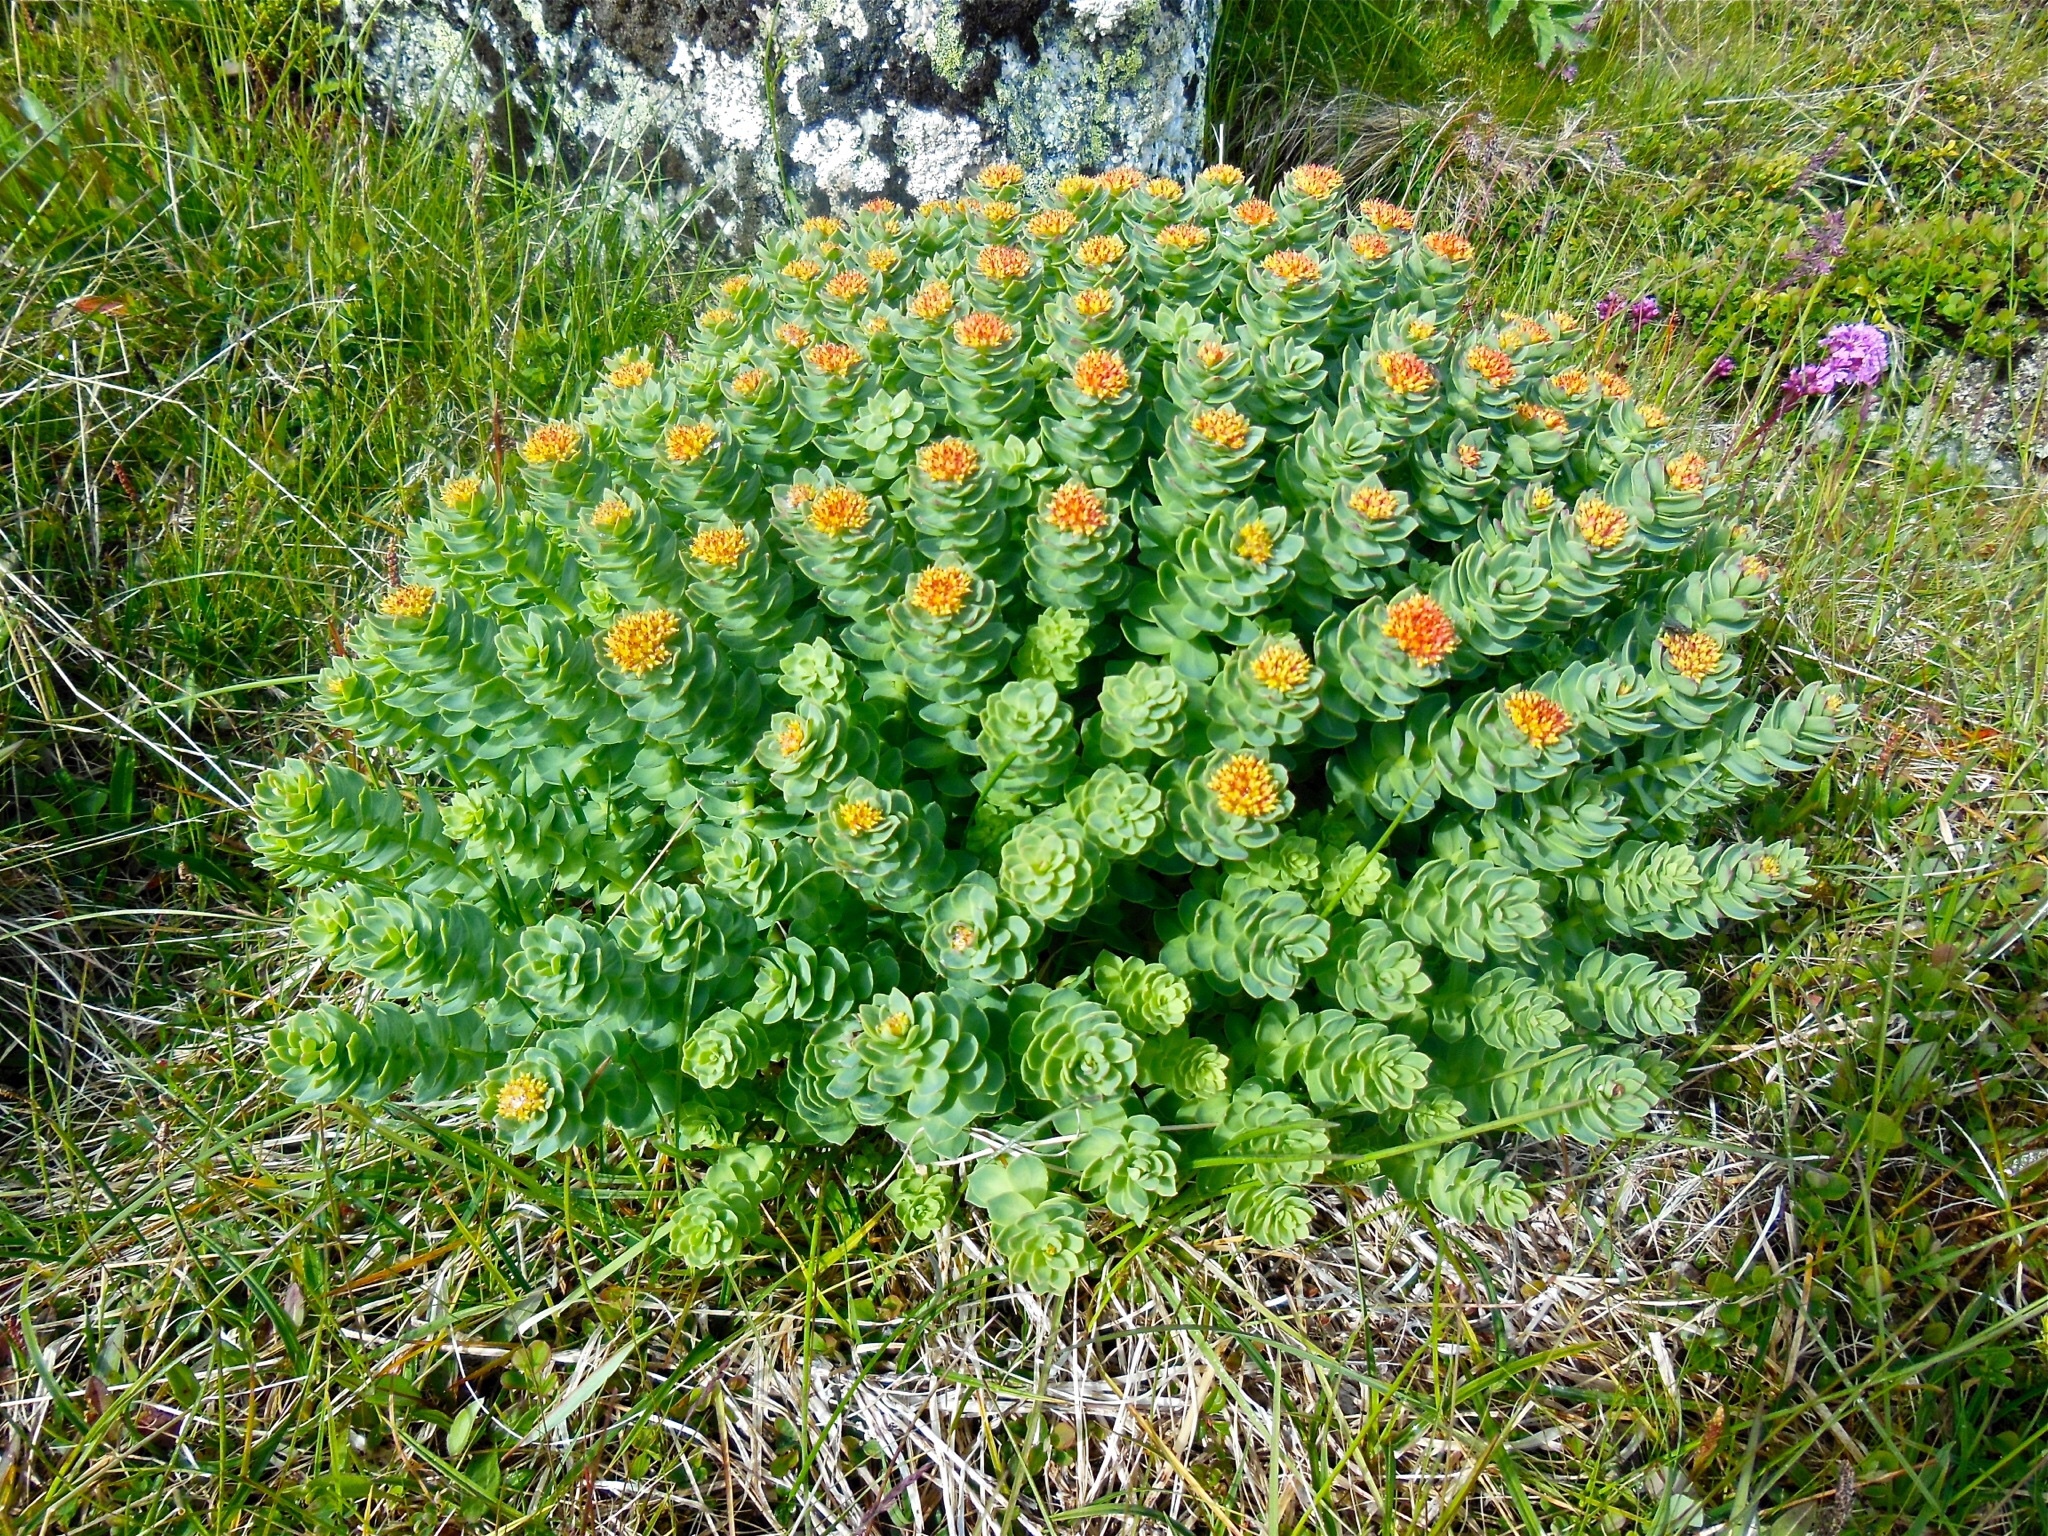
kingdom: Plantae
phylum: Tracheophyta
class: Magnoliopsida
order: Saxifragales
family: Crassulaceae
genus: Rhodiola
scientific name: Rhodiola rosea
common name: Roseroot
